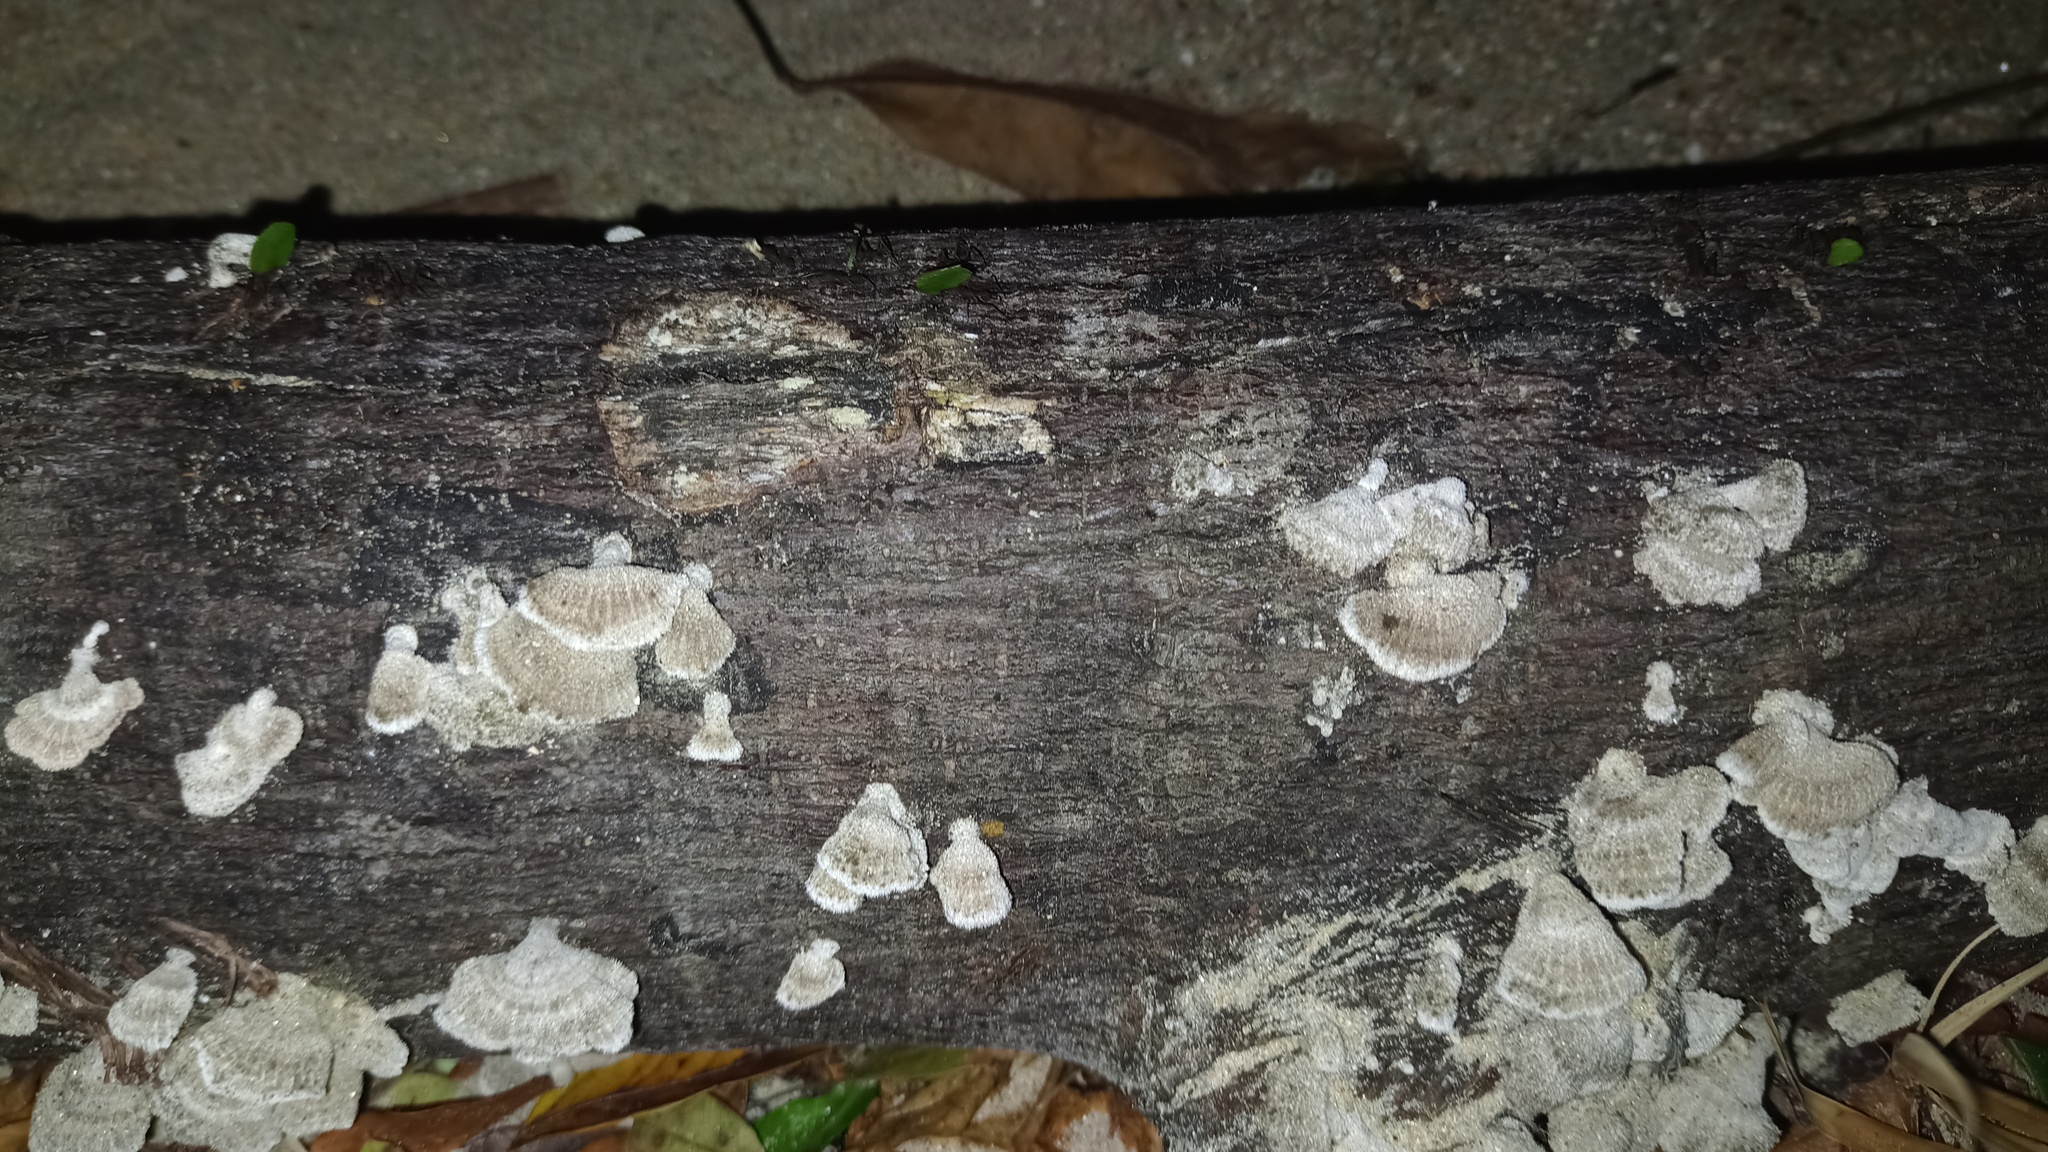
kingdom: Fungi
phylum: Basidiomycota
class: Agaricomycetes
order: Agaricales
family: Schizophyllaceae
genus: Schizophyllum
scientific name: Schizophyllum commune
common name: Common porecrust
